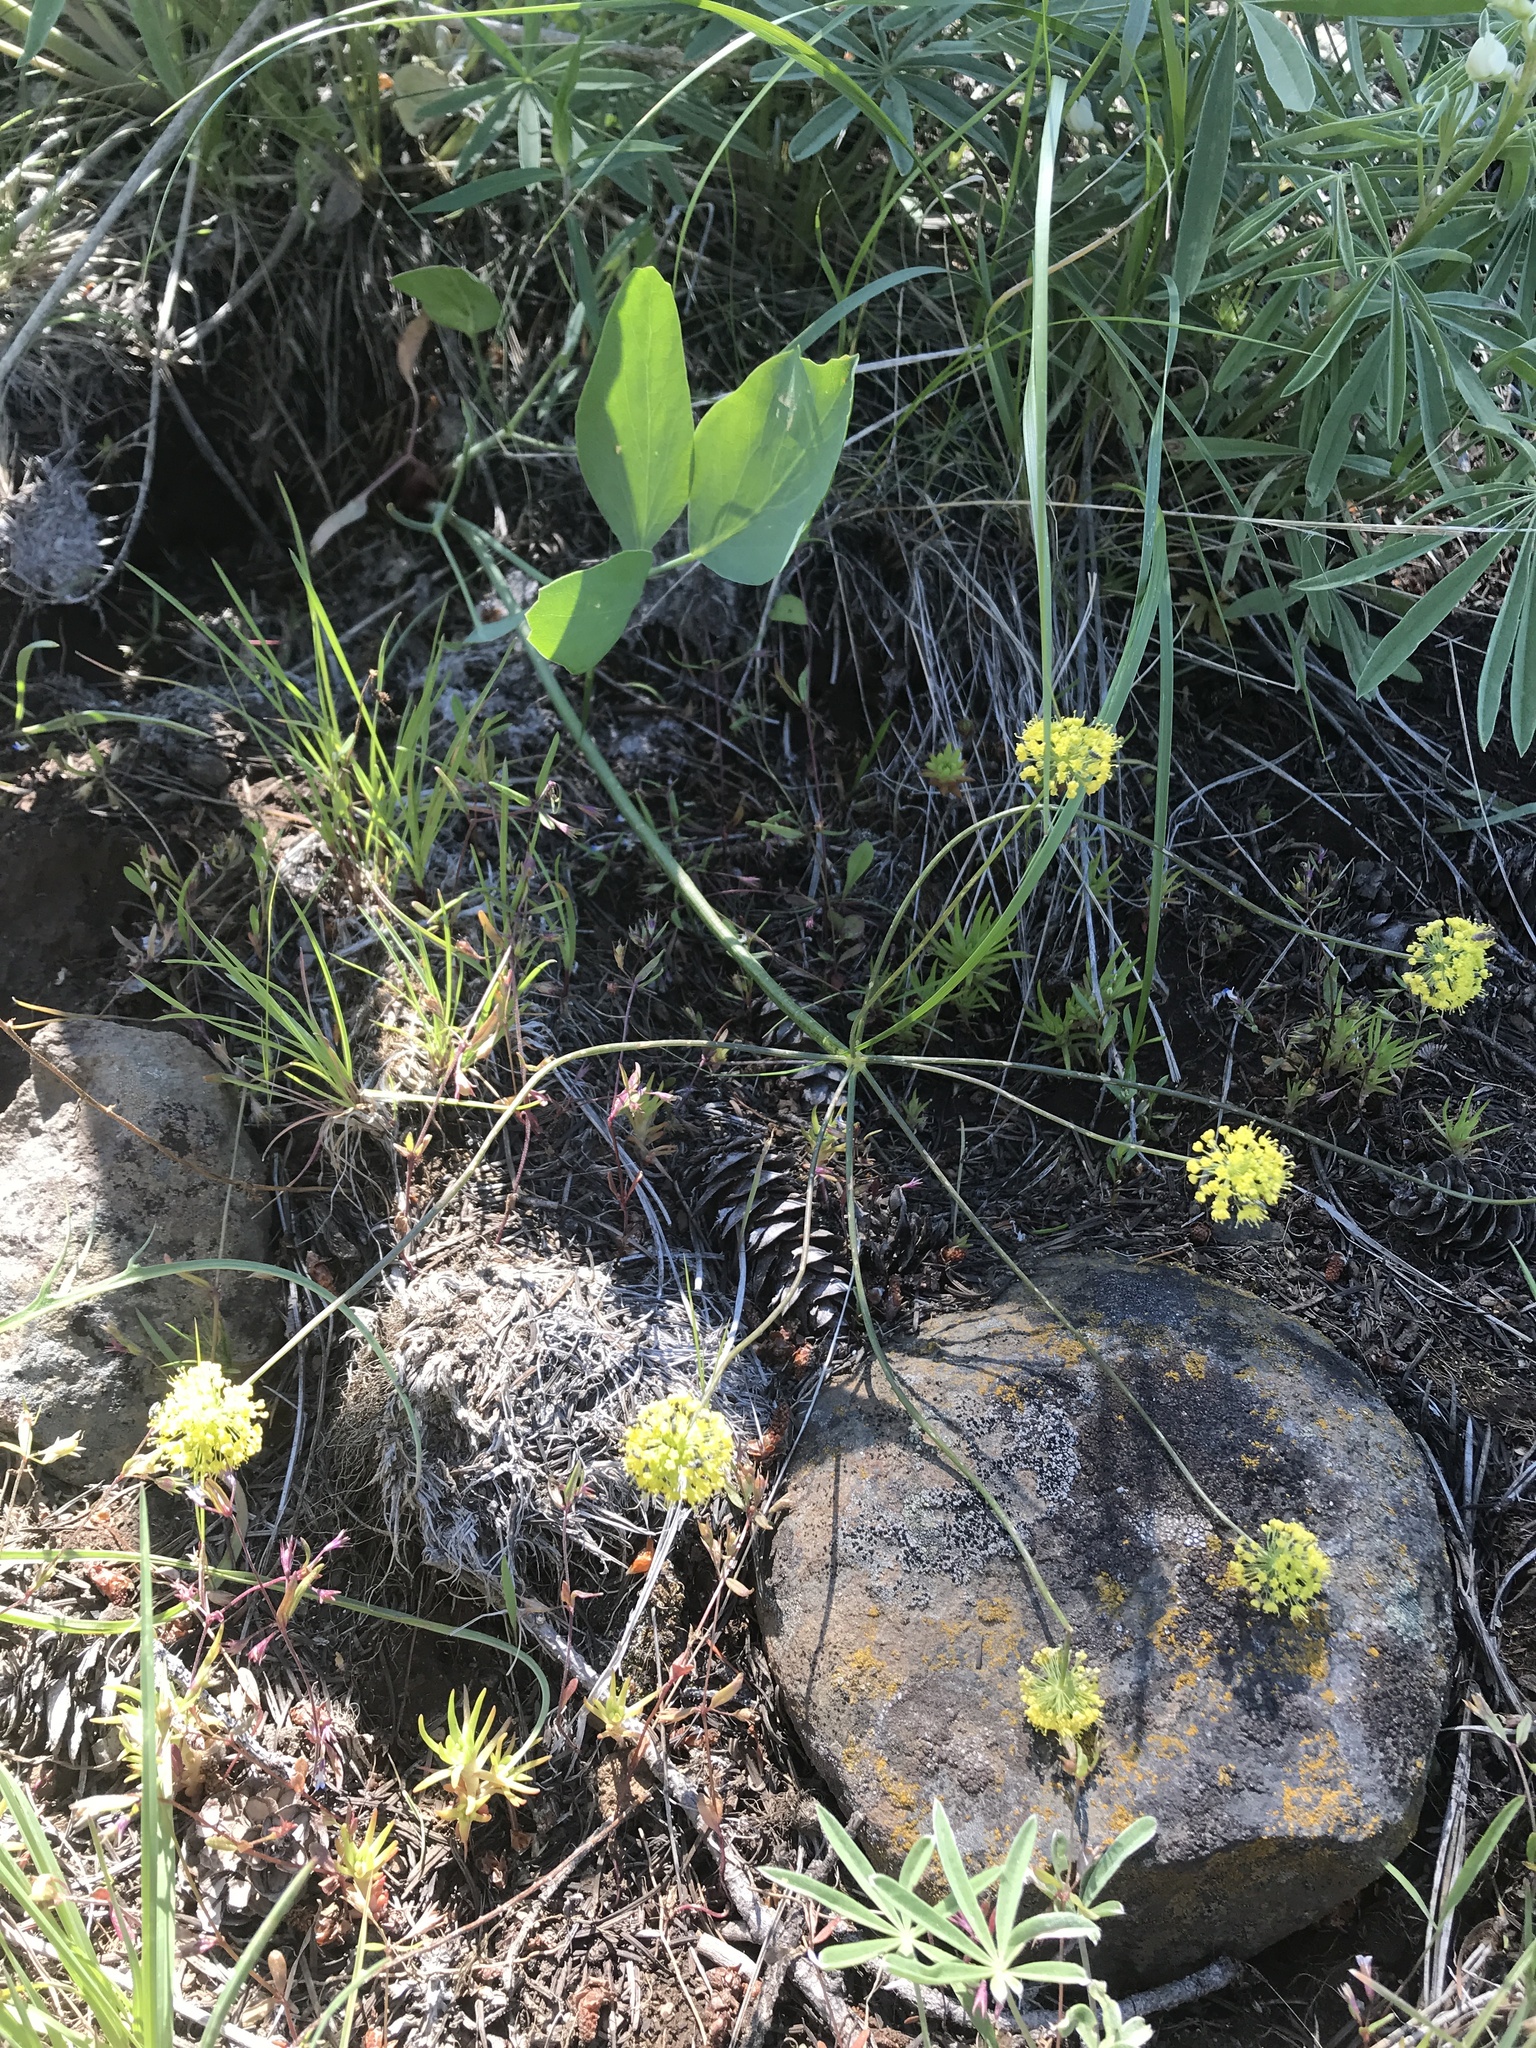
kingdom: Plantae
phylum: Tracheophyta
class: Magnoliopsida
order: Apiales
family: Apiaceae
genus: Lomatium
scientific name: Lomatium nudicaule
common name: Pestle lomatium
